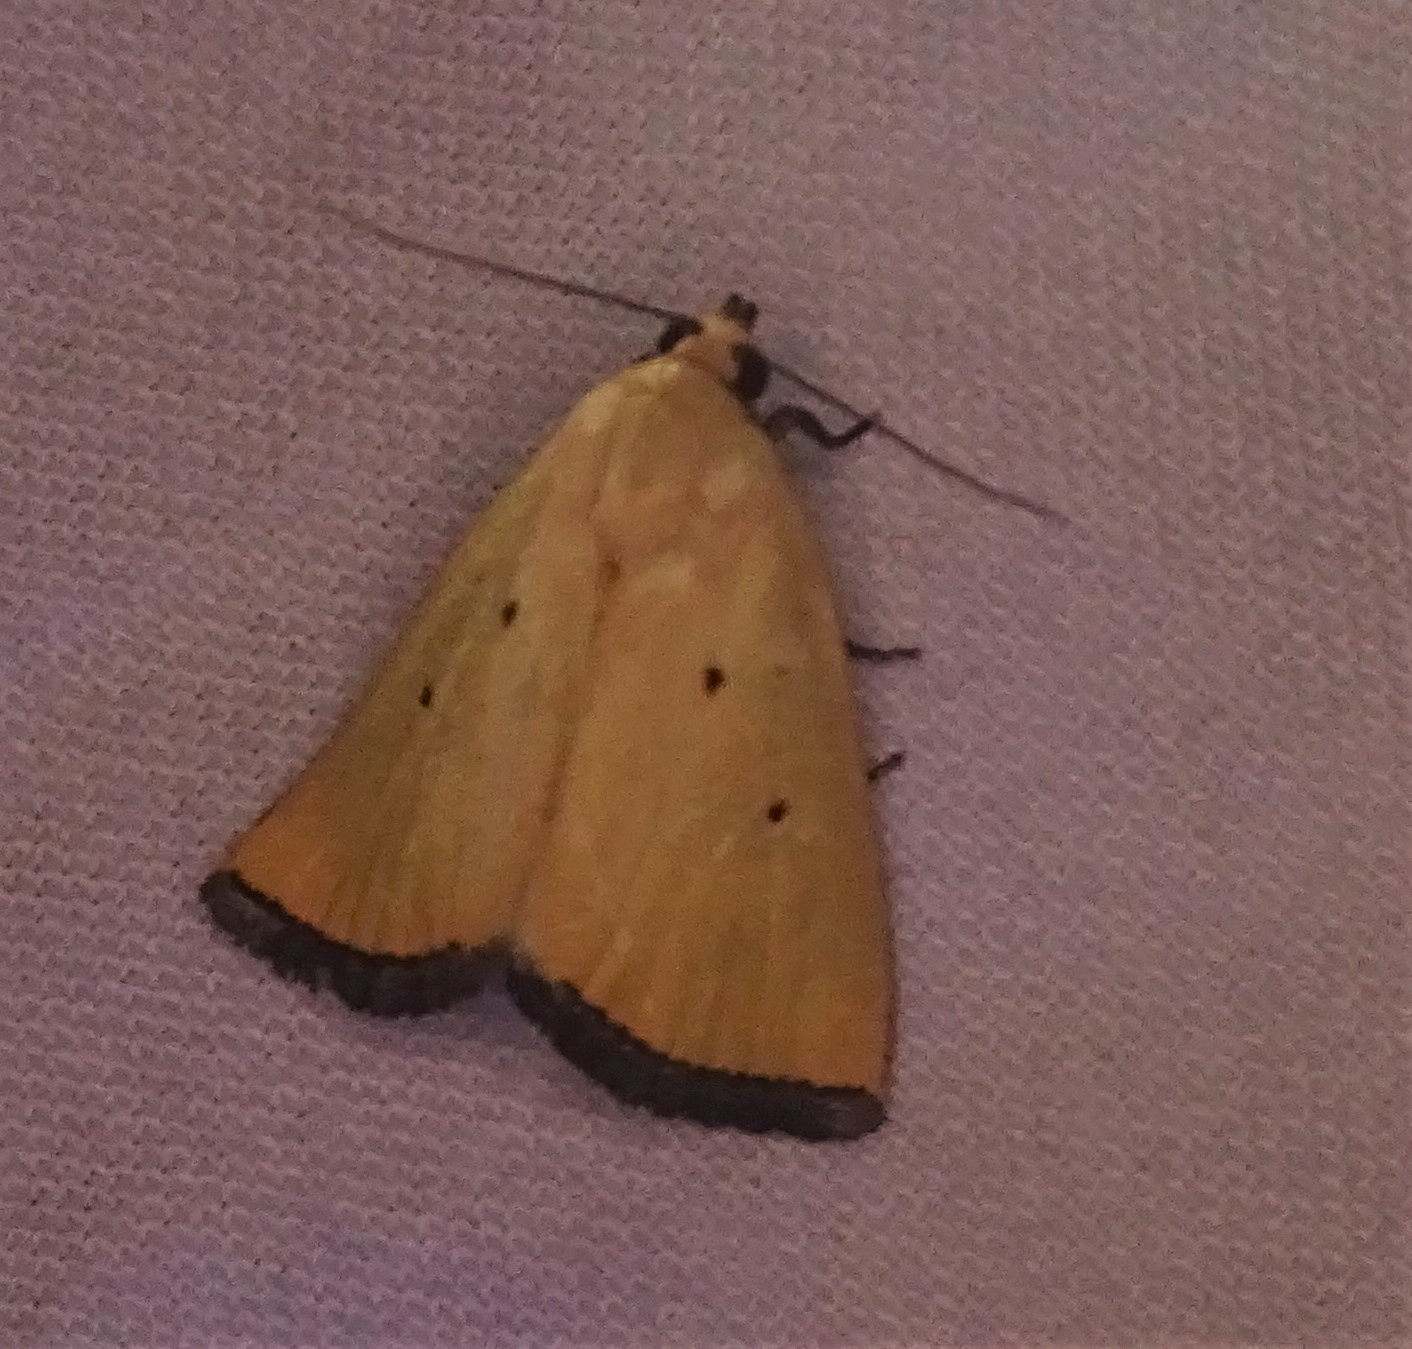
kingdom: Animalia
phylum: Arthropoda
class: Insecta
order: Lepidoptera
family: Noctuidae
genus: Marimatha
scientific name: Marimatha nigrofimbria
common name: Black-bordered lemon moth
